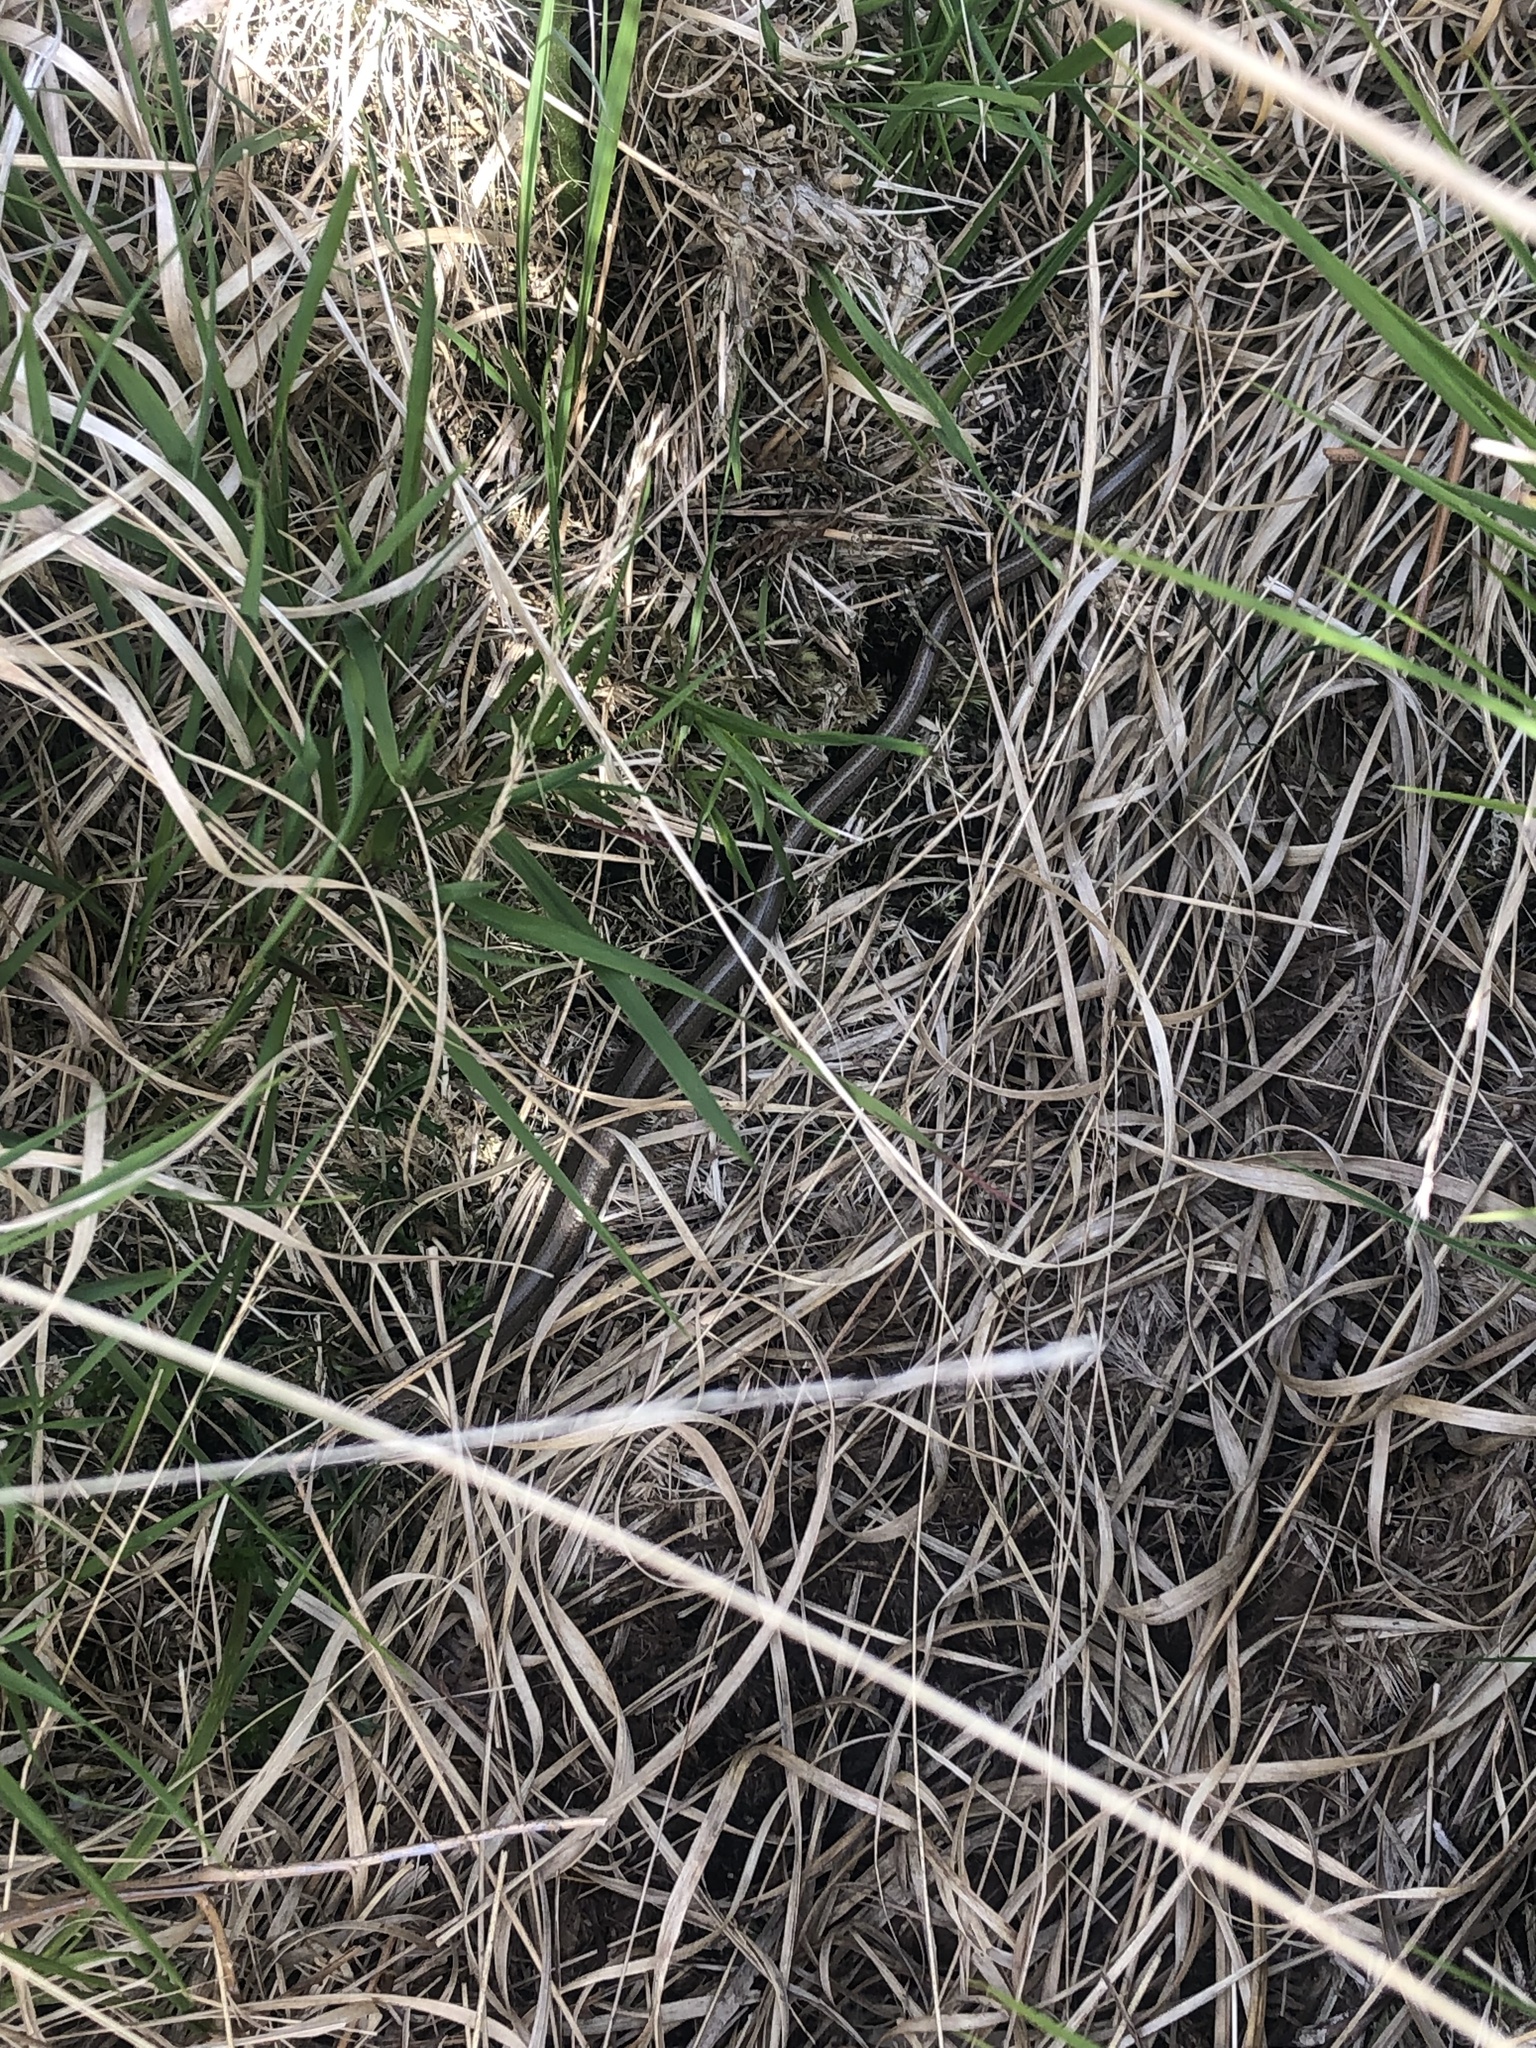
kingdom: Animalia
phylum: Chordata
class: Squamata
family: Anguidae
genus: Anguis
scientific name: Anguis fragilis
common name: Slow worm
